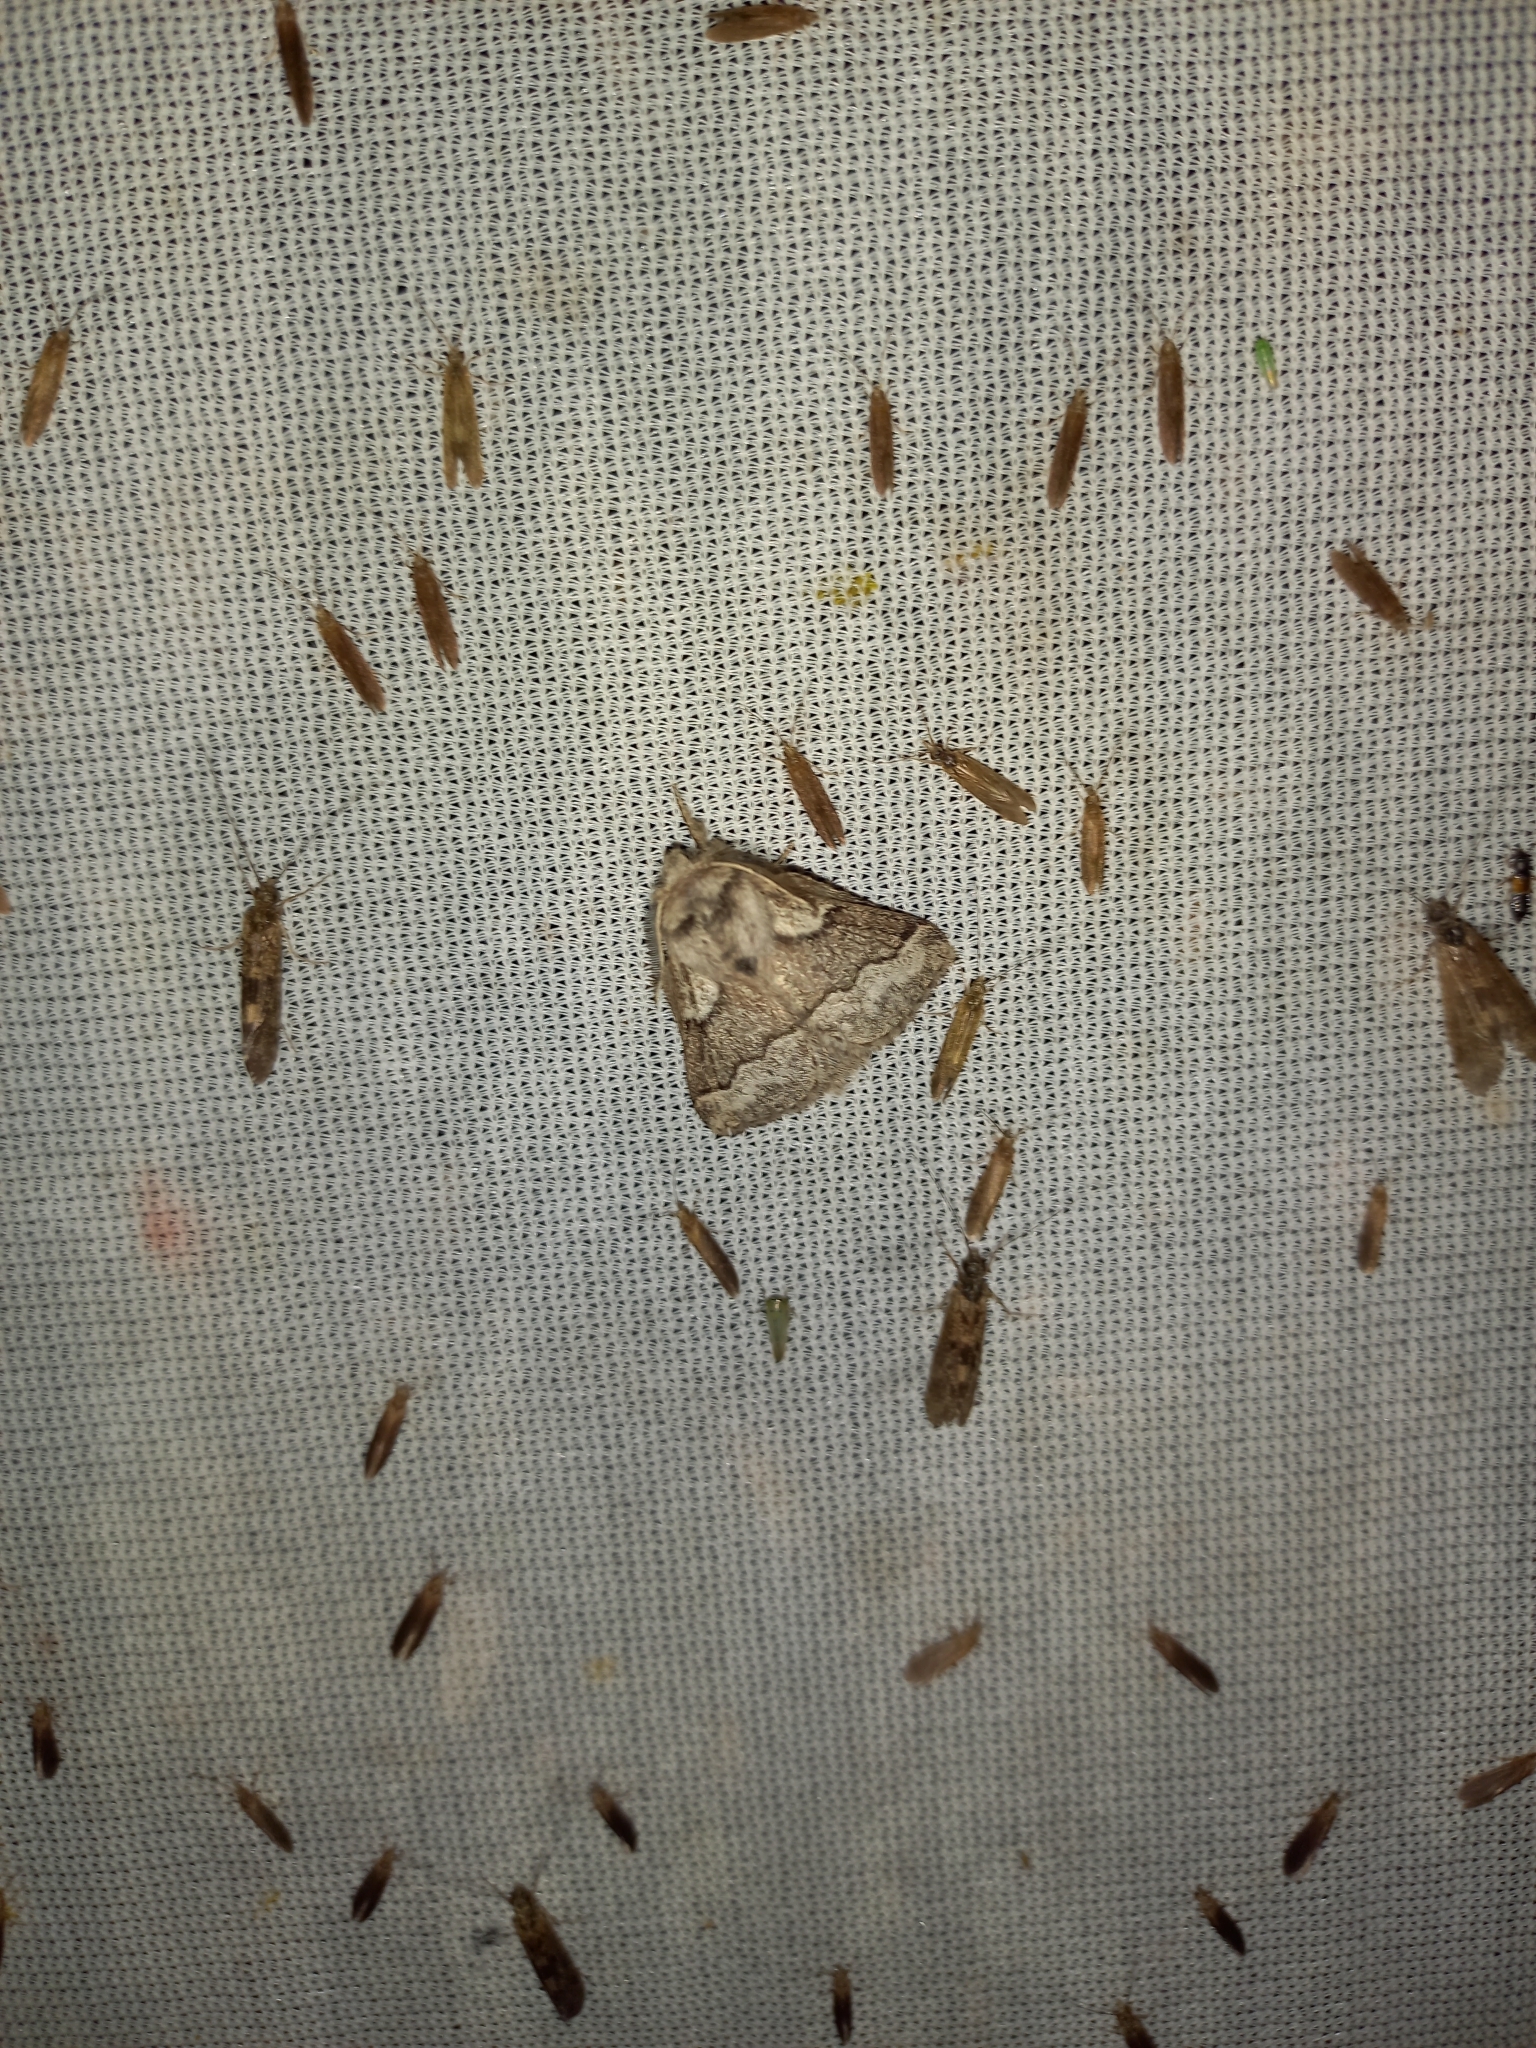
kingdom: Animalia
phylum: Arthropoda
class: Insecta
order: Lepidoptera
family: Lasiocampidae
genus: Trichiura
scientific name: Trichiura crataegi
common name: Pale eggar
